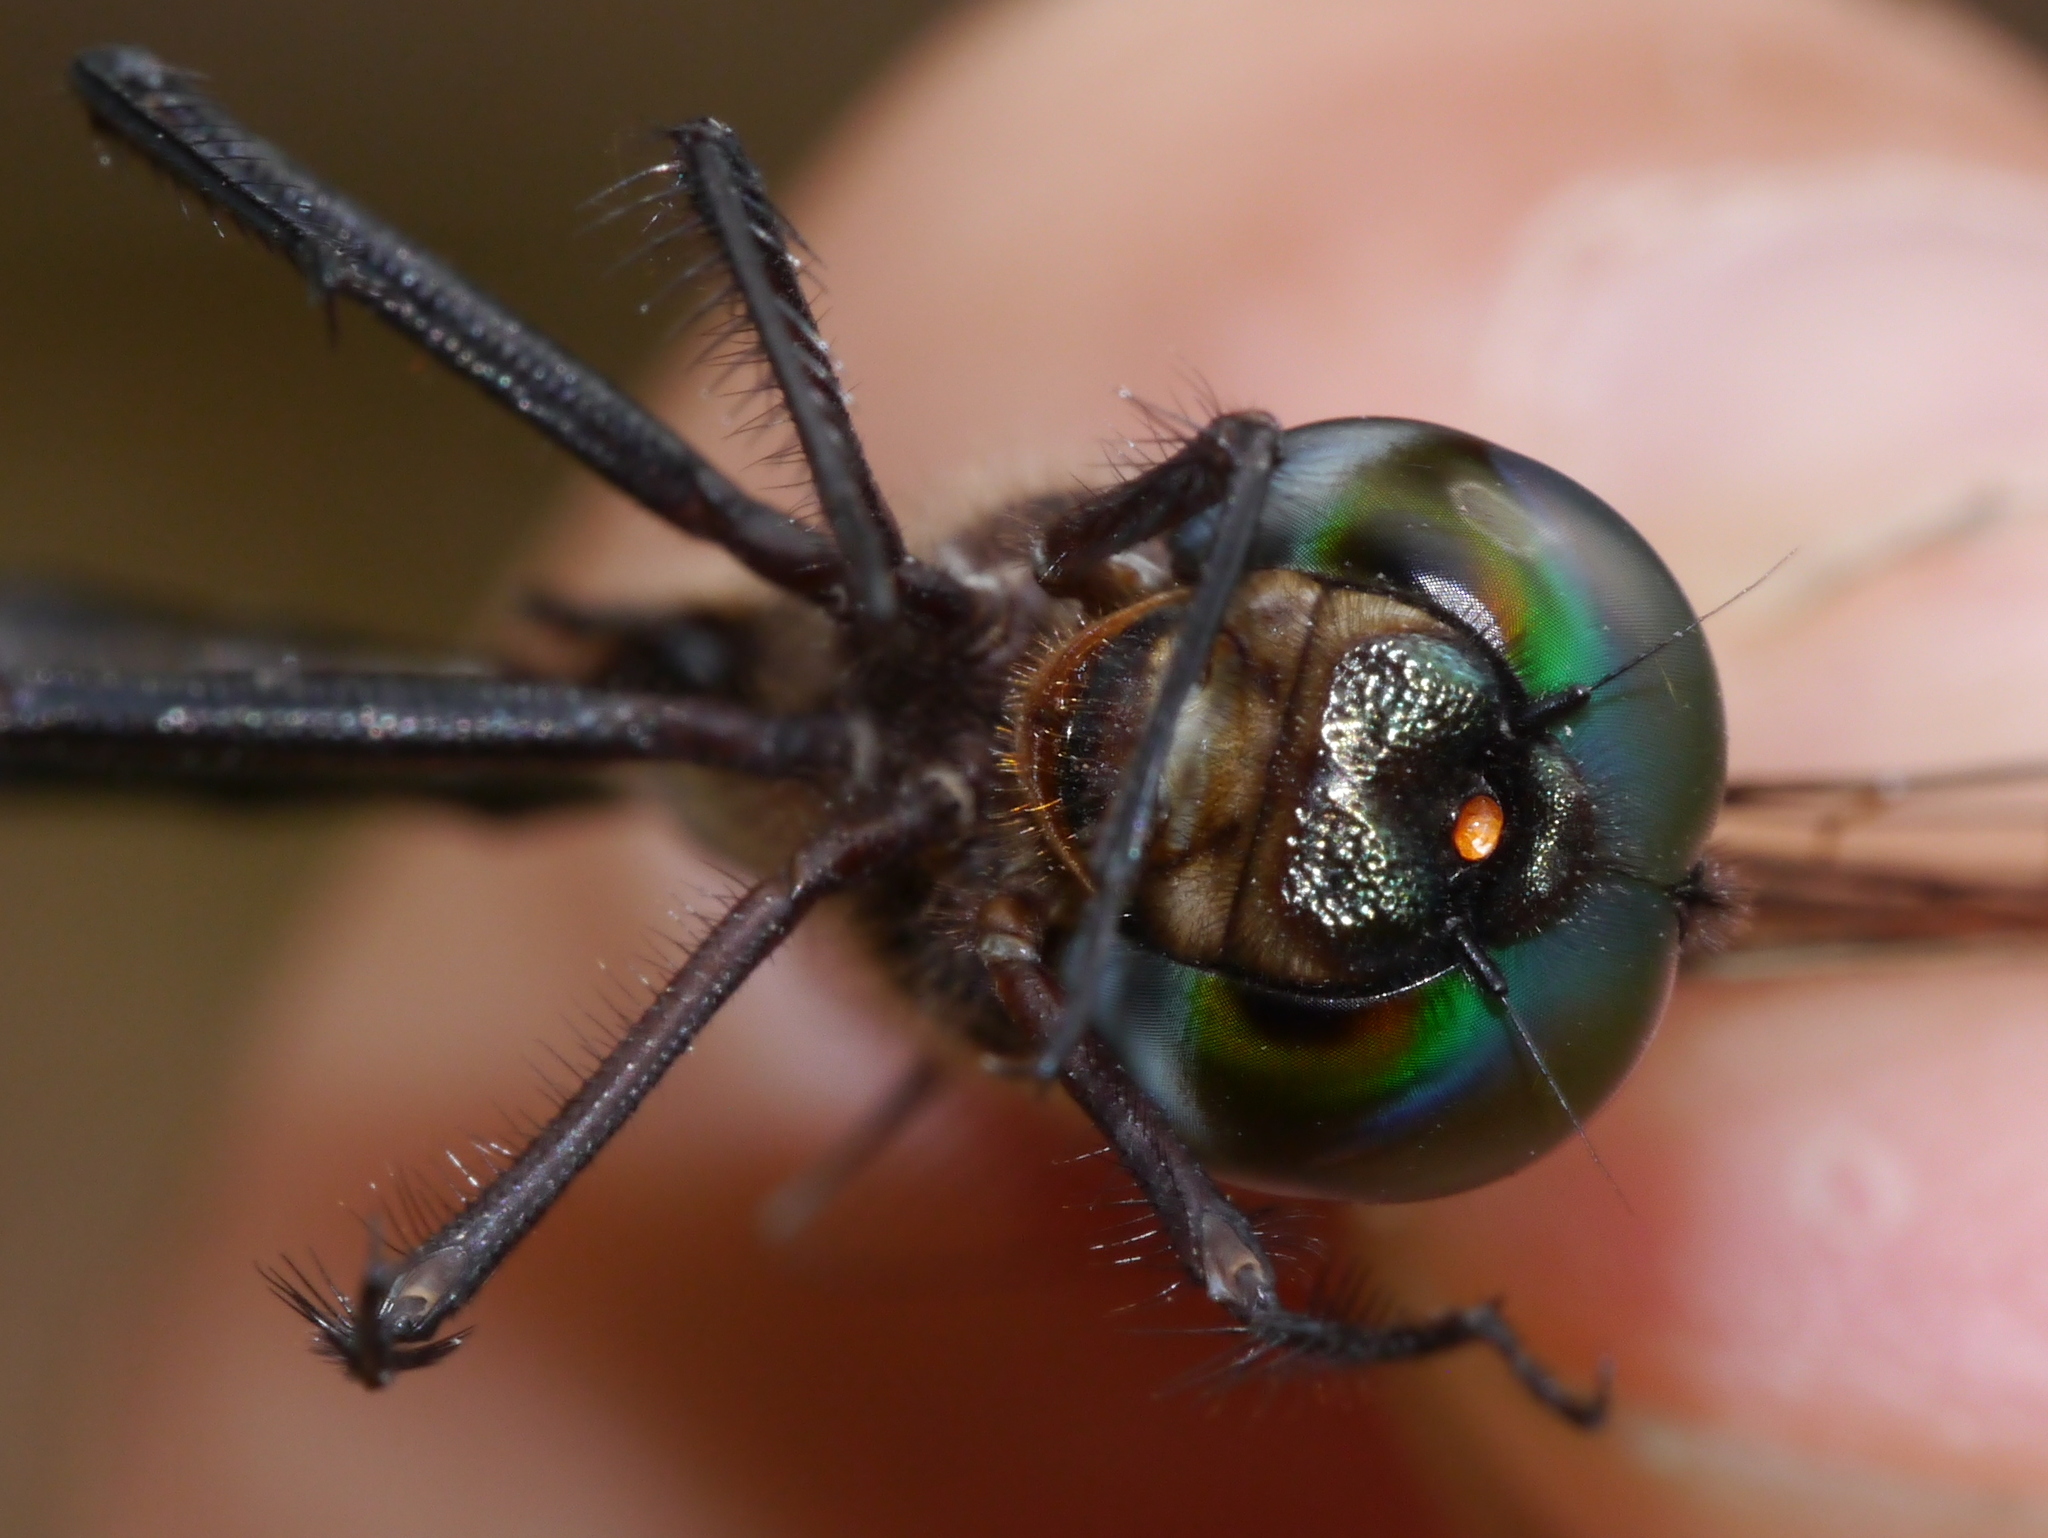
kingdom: Animalia
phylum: Arthropoda
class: Insecta
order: Odonata
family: Corduliidae
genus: Somatochlora
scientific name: Somatochlora filosa
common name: Fine-lined emerald
